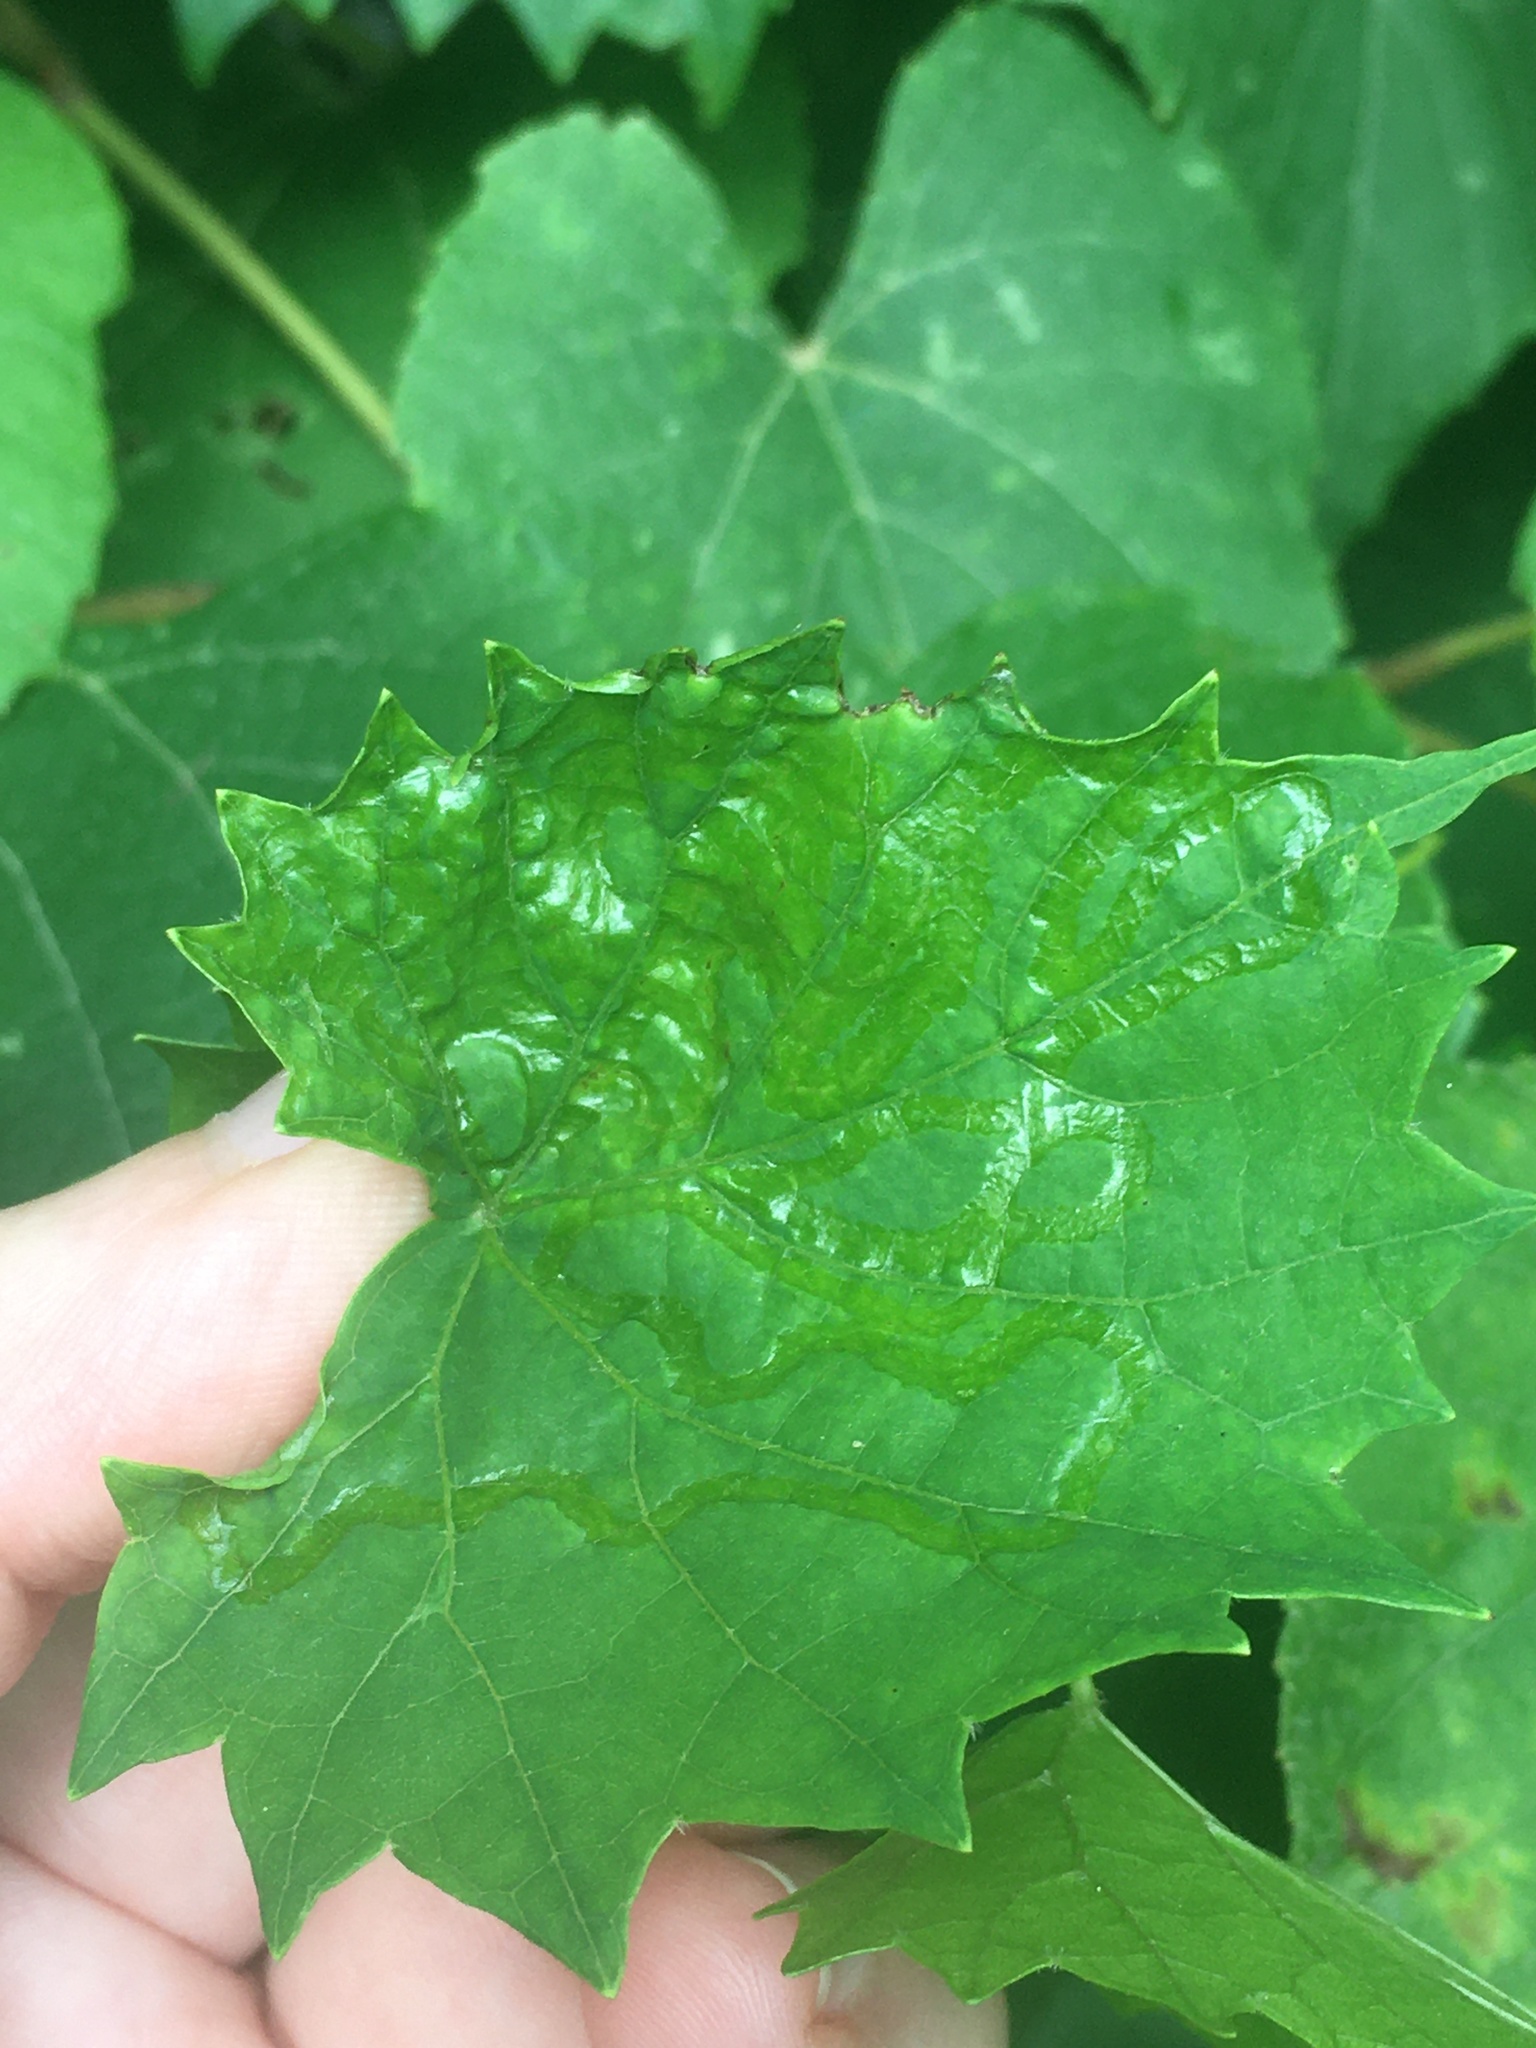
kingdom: Animalia
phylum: Arthropoda
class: Insecta
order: Lepidoptera
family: Gracillariidae
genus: Phyllocnistis
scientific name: Phyllocnistis vitegenella
